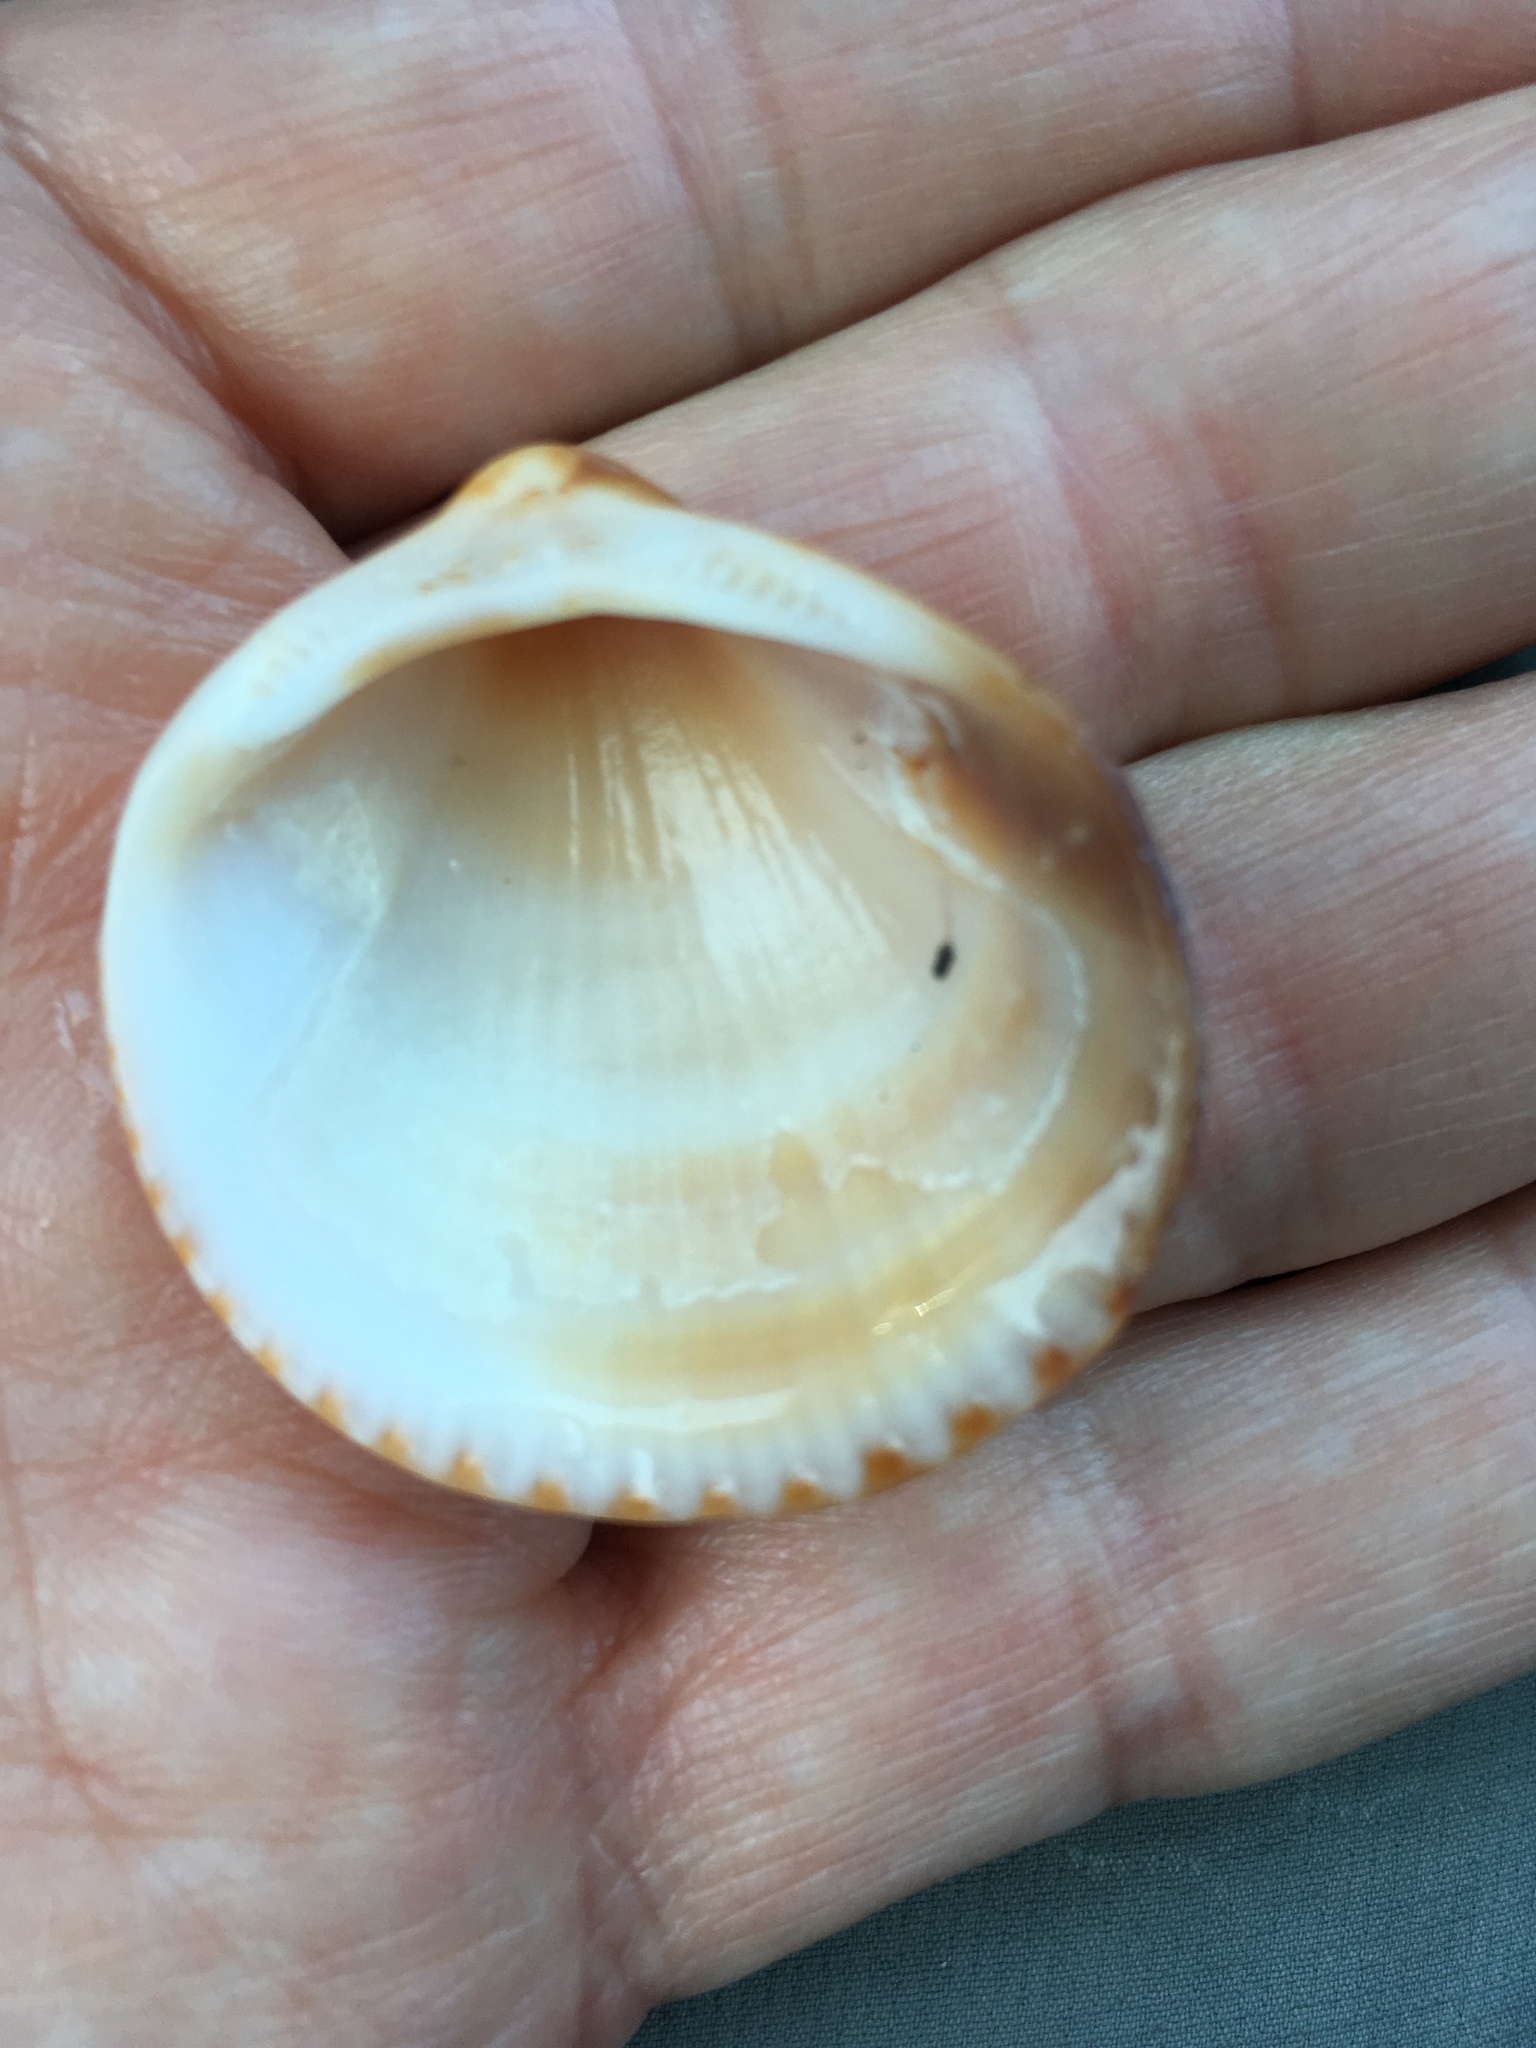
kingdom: Animalia
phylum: Mollusca
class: Bivalvia
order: Arcida
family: Glycymerididae
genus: Glycymeris
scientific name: Glycymeris spectralis
